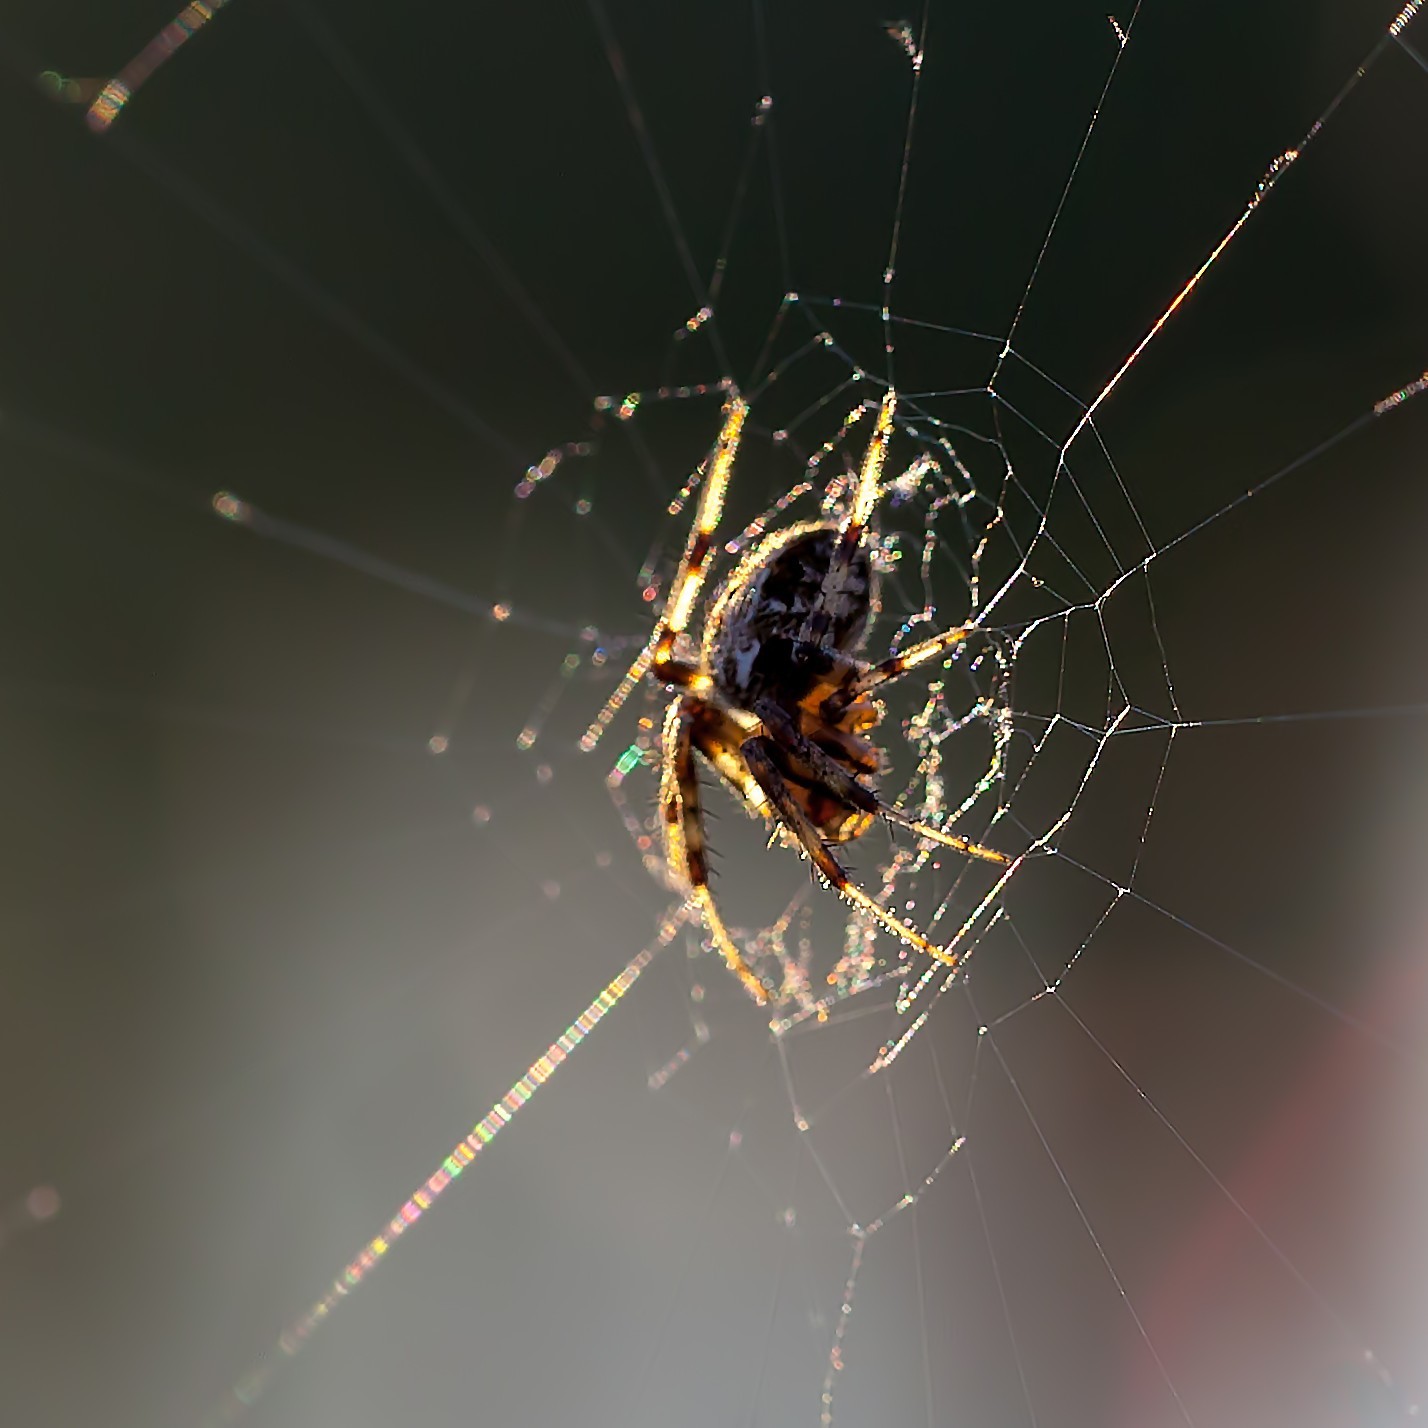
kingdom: Animalia
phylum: Arthropoda
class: Arachnida
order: Araneae
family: Araneidae
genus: Neoscona
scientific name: Neoscona domiciliorum
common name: Red-femured spotted orbweaver
